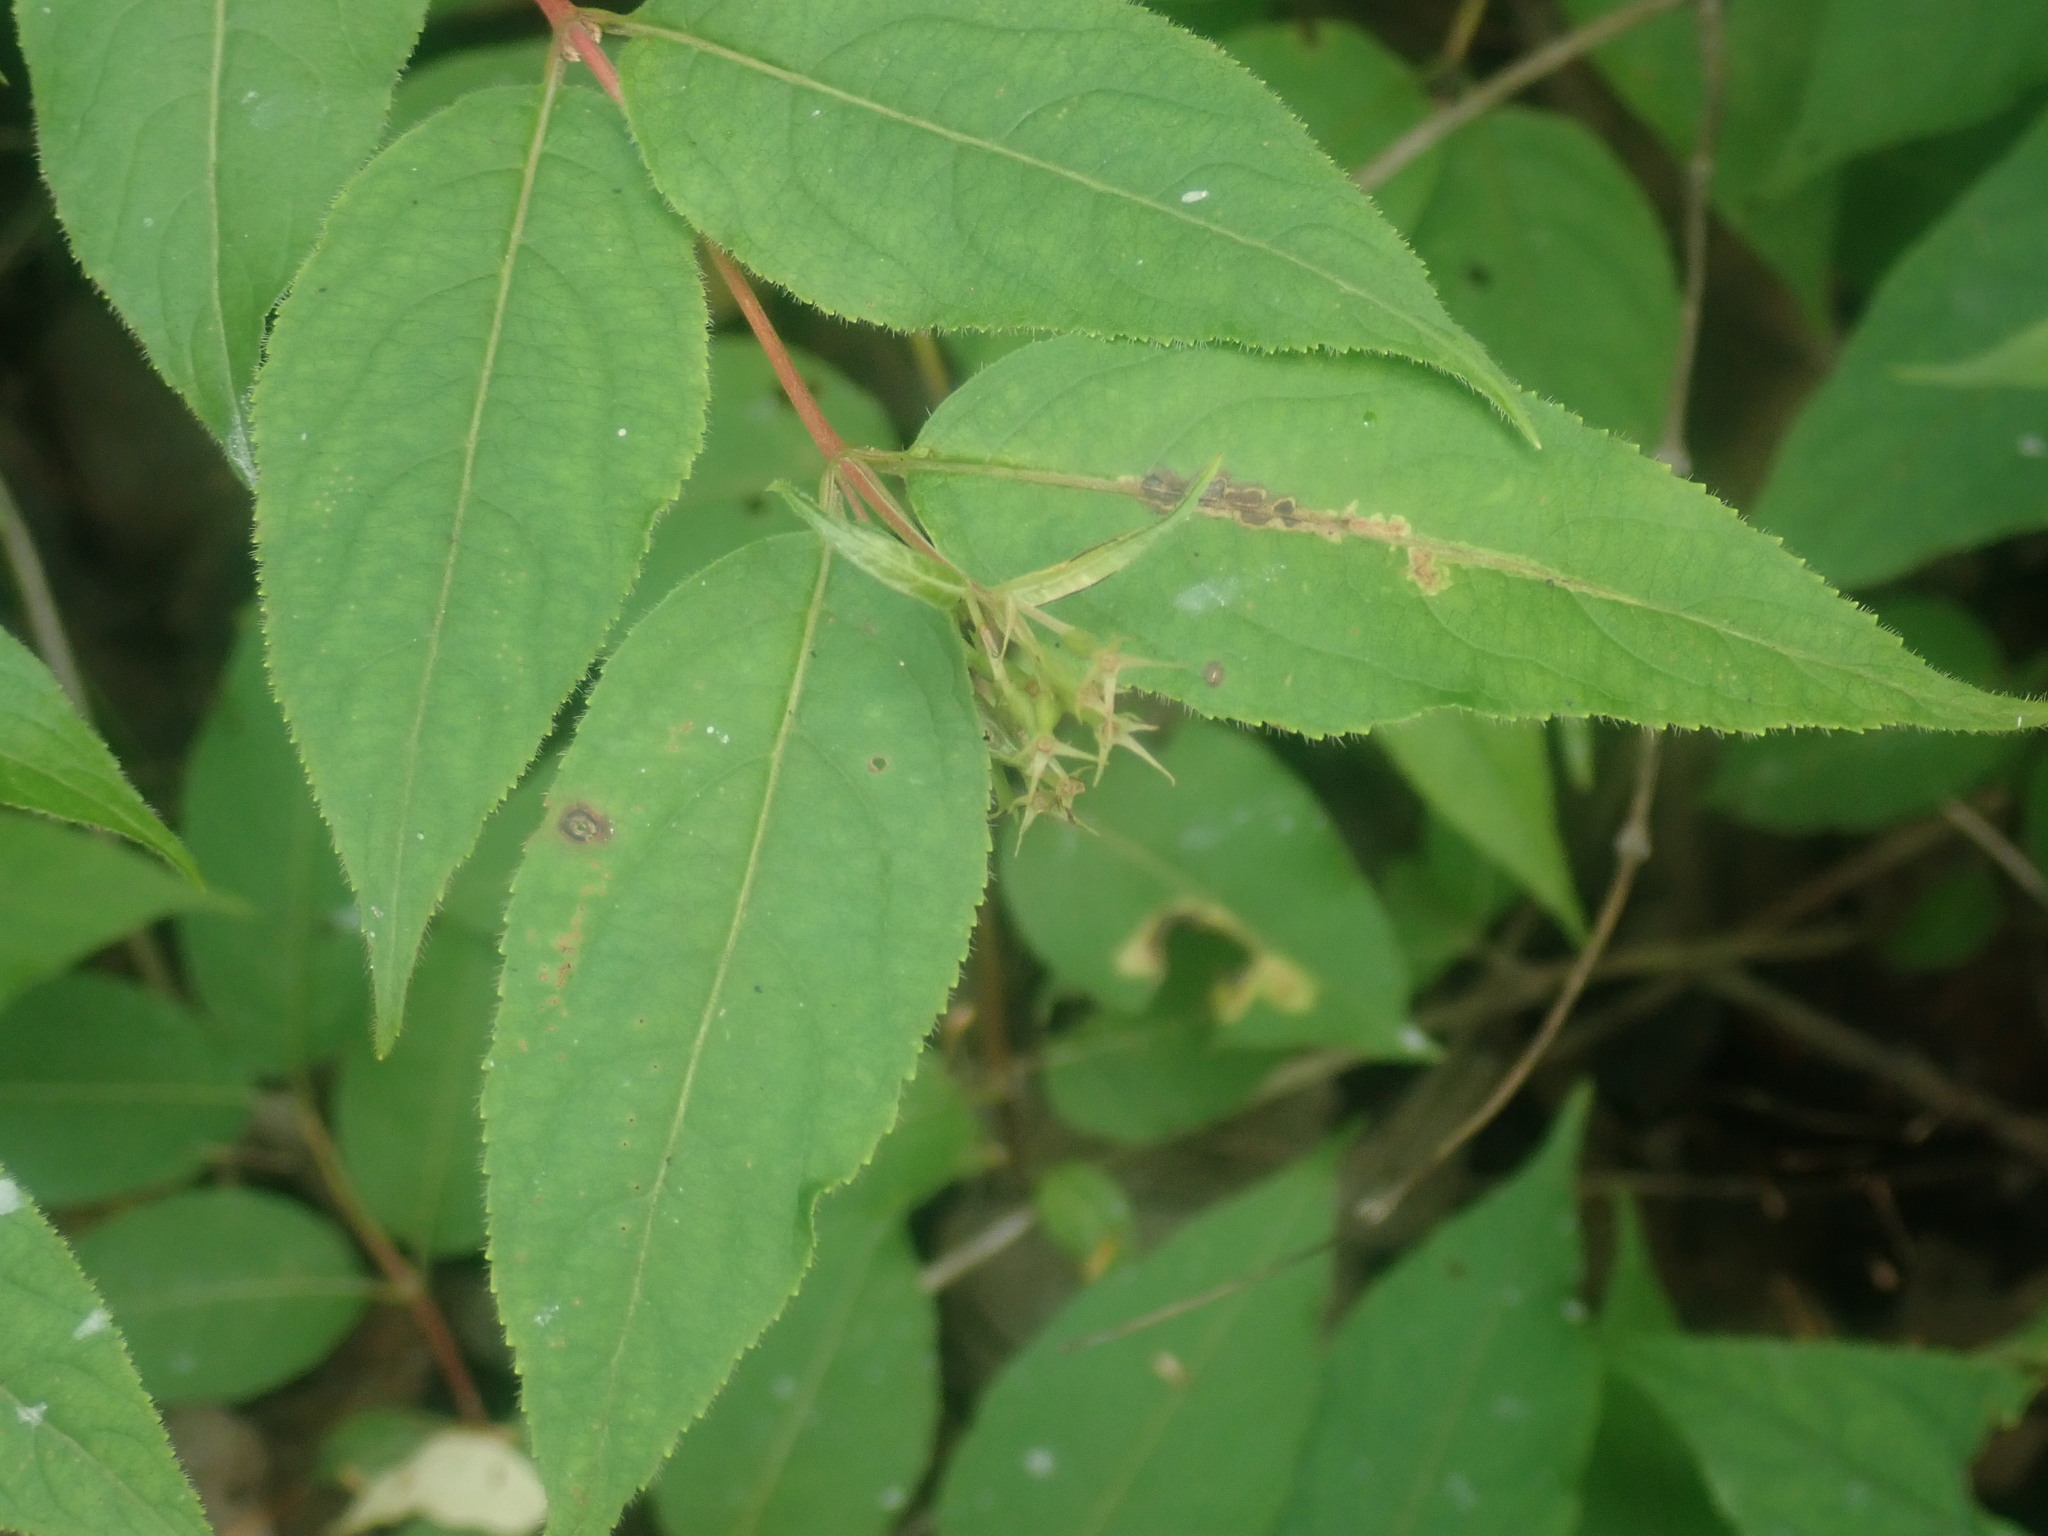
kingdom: Plantae
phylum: Tracheophyta
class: Magnoliopsida
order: Dipsacales
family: Caprifoliaceae
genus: Diervilla
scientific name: Diervilla lonicera
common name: Bush-honeysuckle
